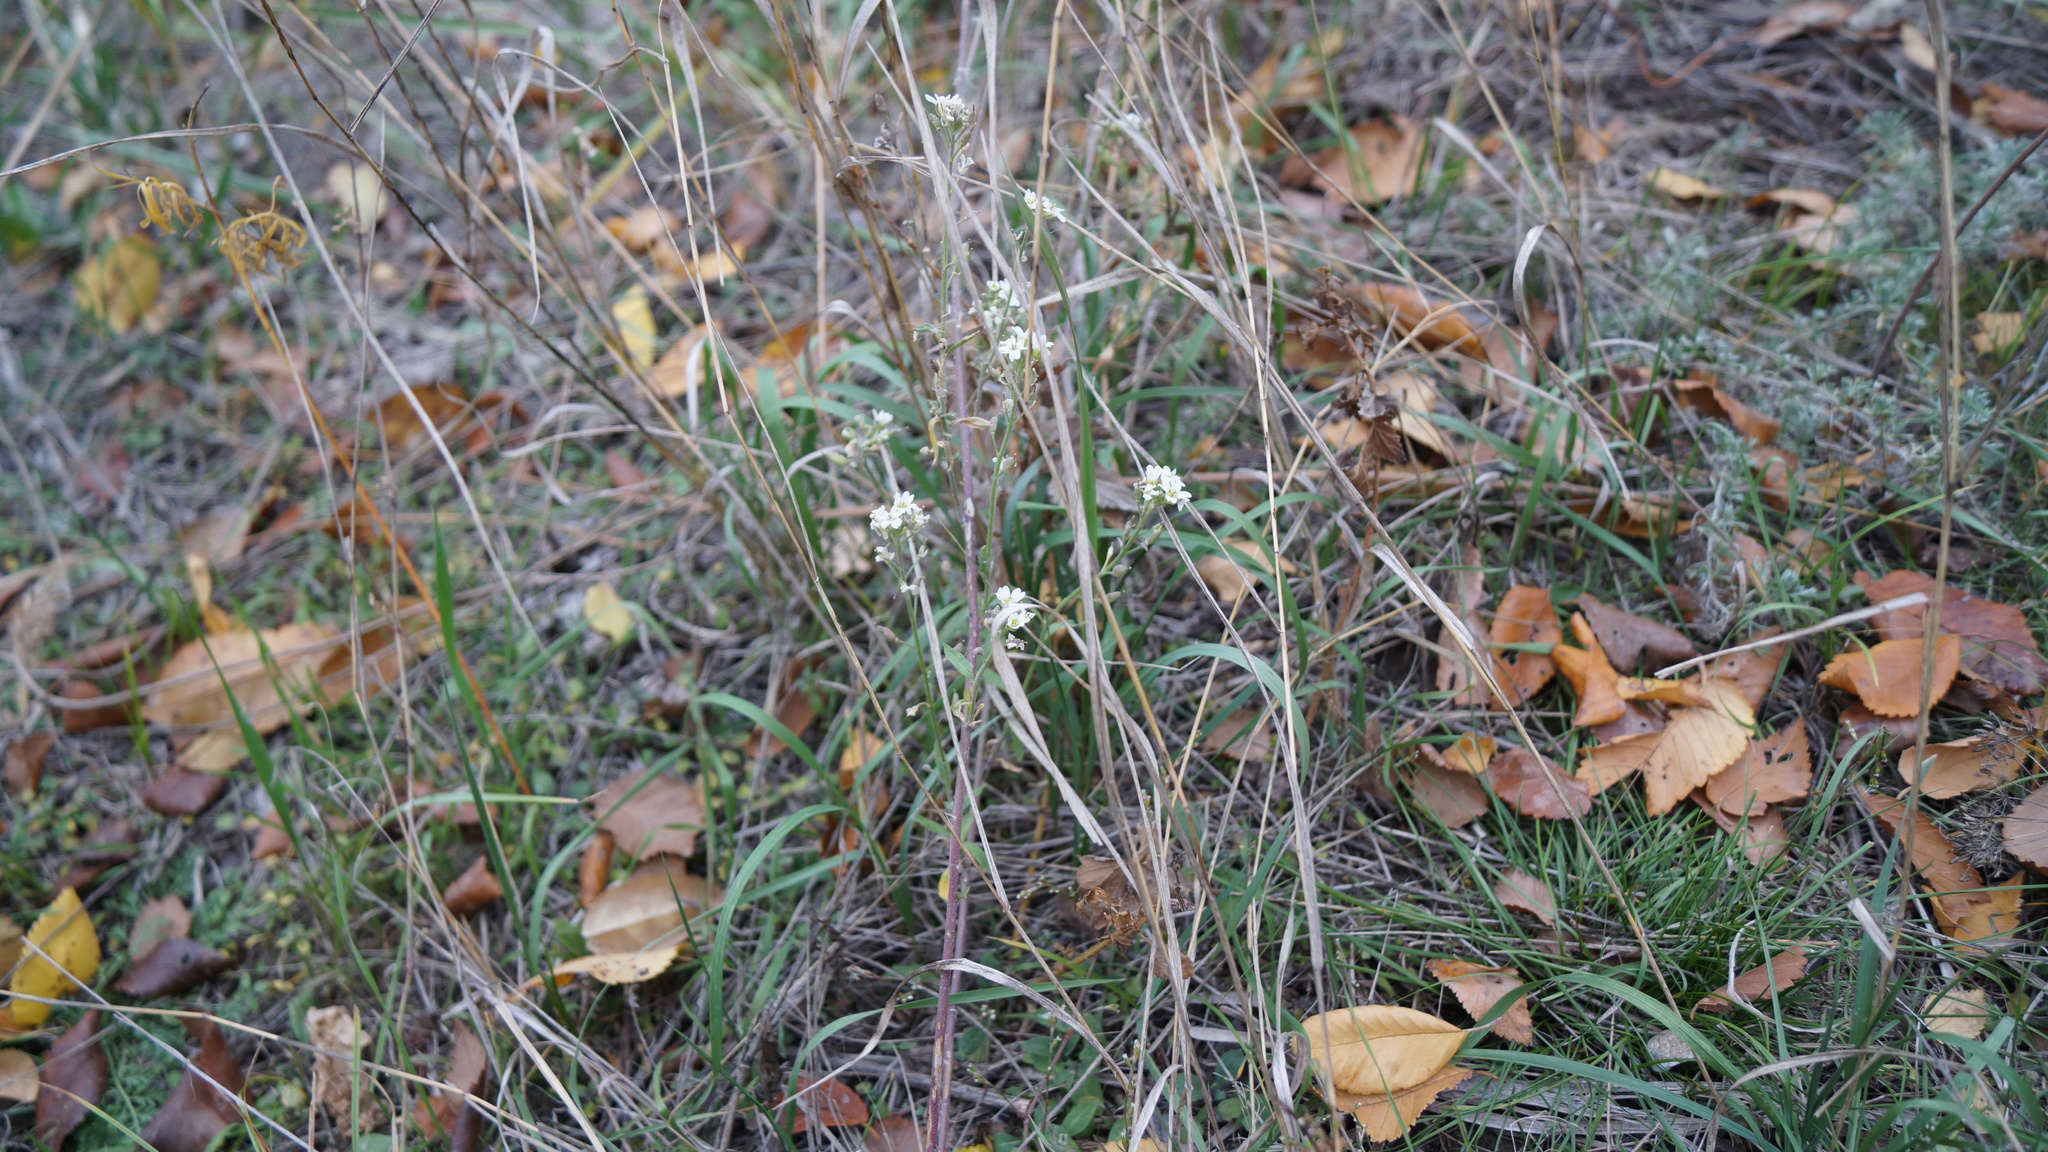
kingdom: Plantae
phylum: Tracheophyta
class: Magnoliopsida
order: Brassicales
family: Brassicaceae
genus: Berteroa
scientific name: Berteroa incana
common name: Hoary alison
